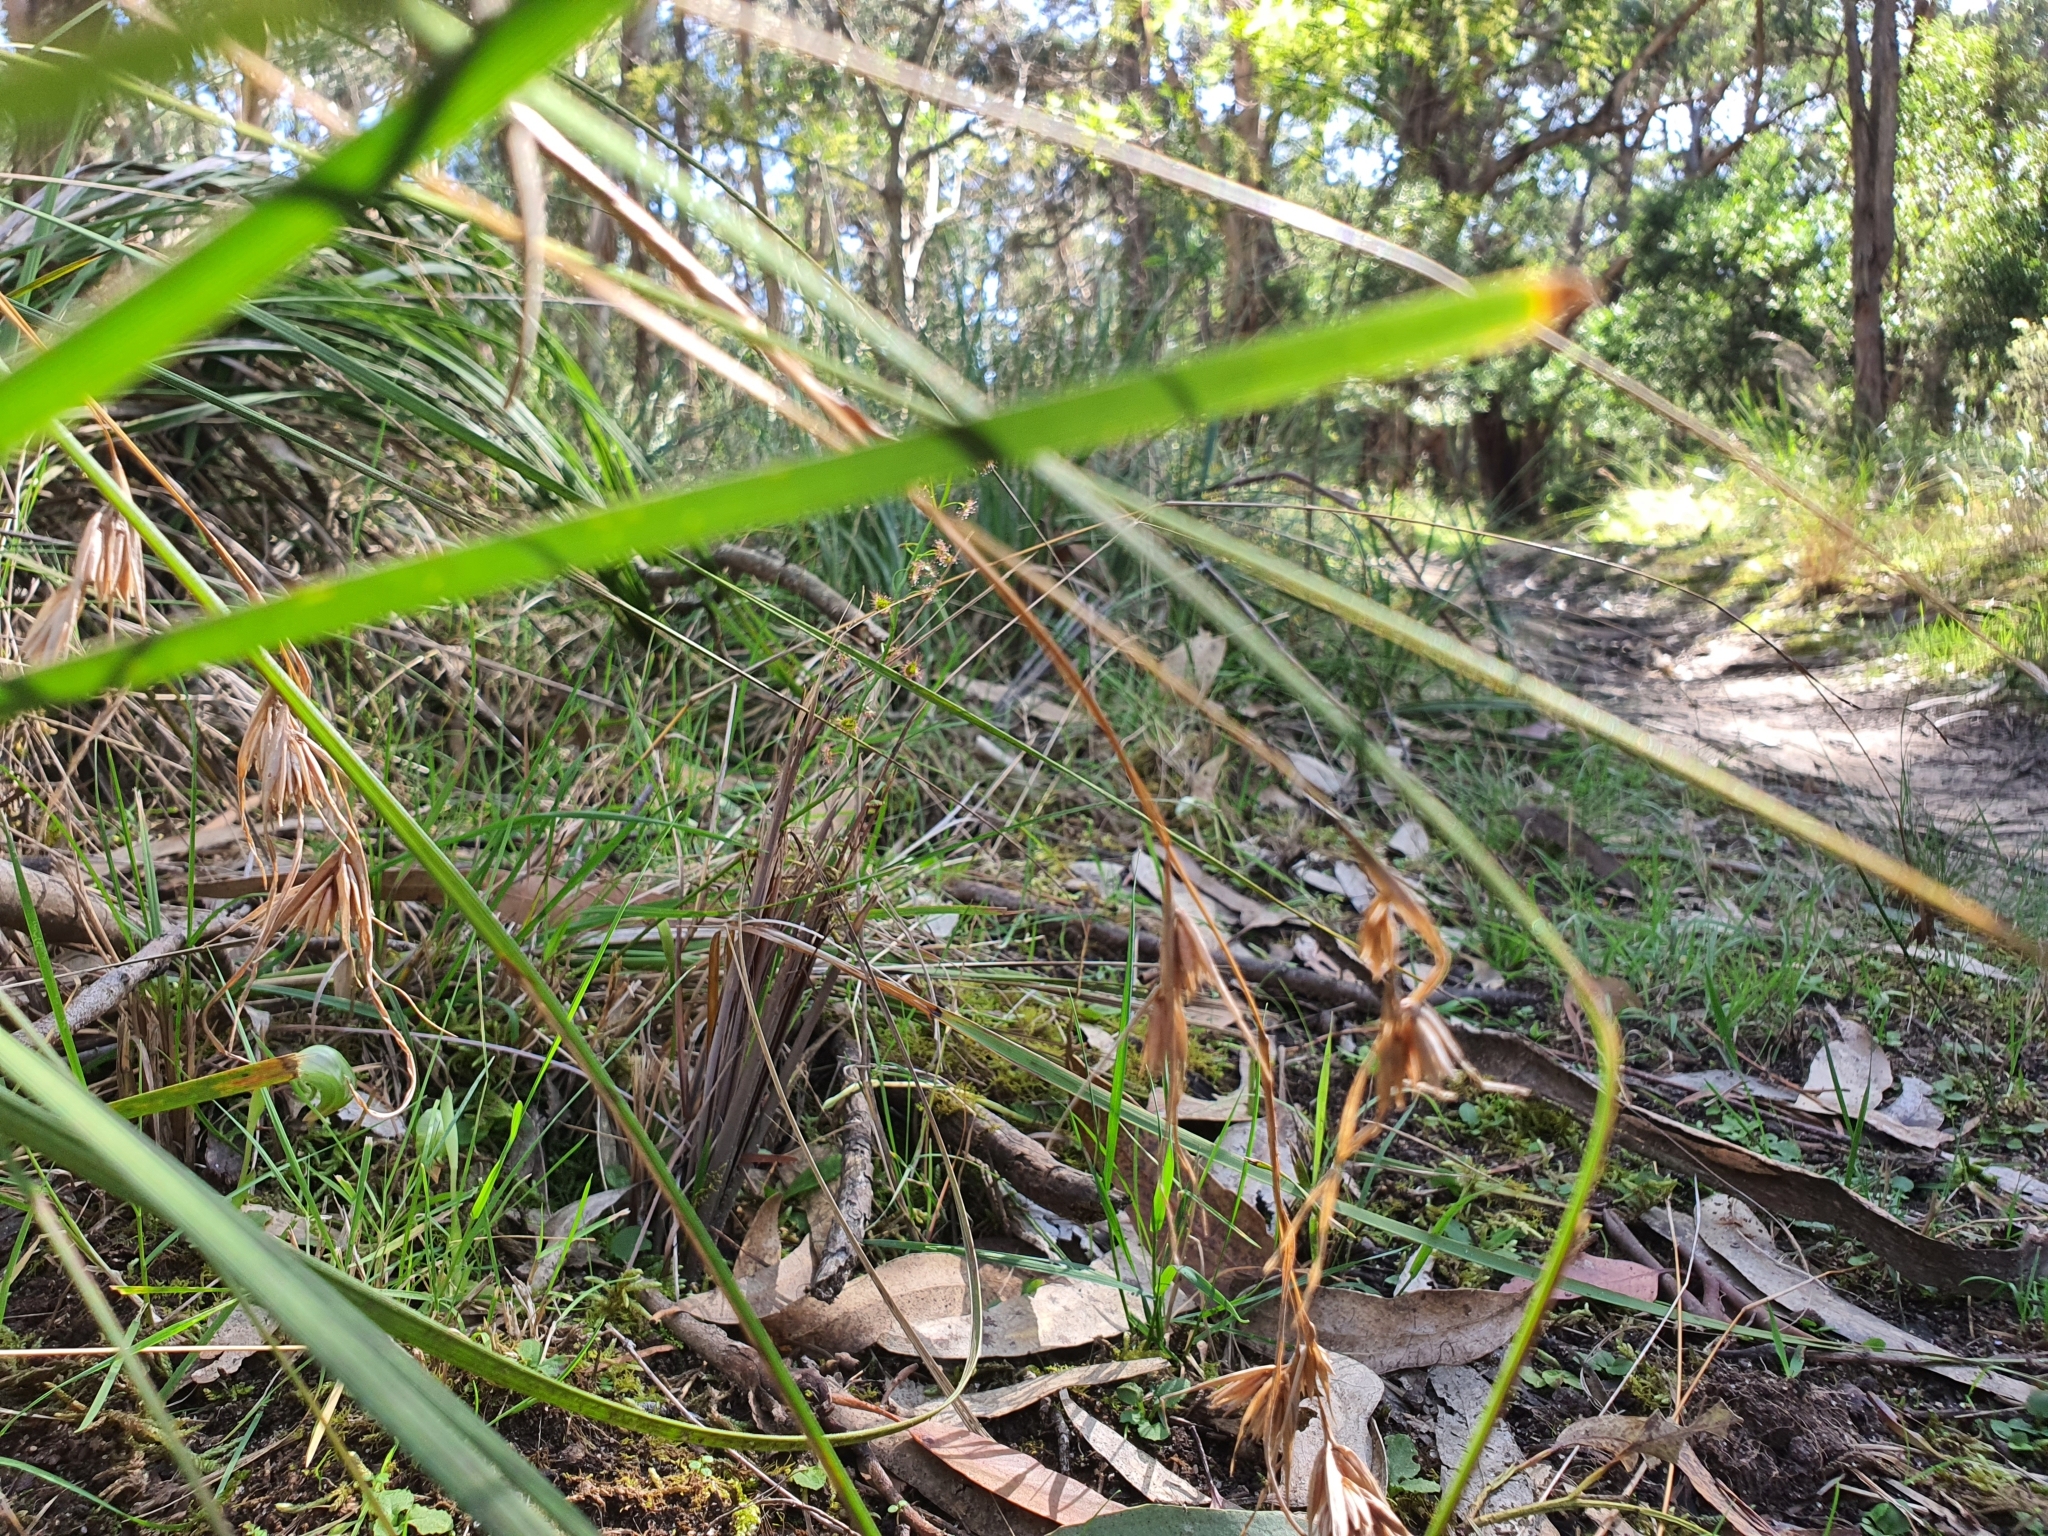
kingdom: Plantae
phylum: Tracheophyta
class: Liliopsida
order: Asparagales
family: Orchidaceae
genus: Pterostylis
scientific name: Pterostylis nutans
